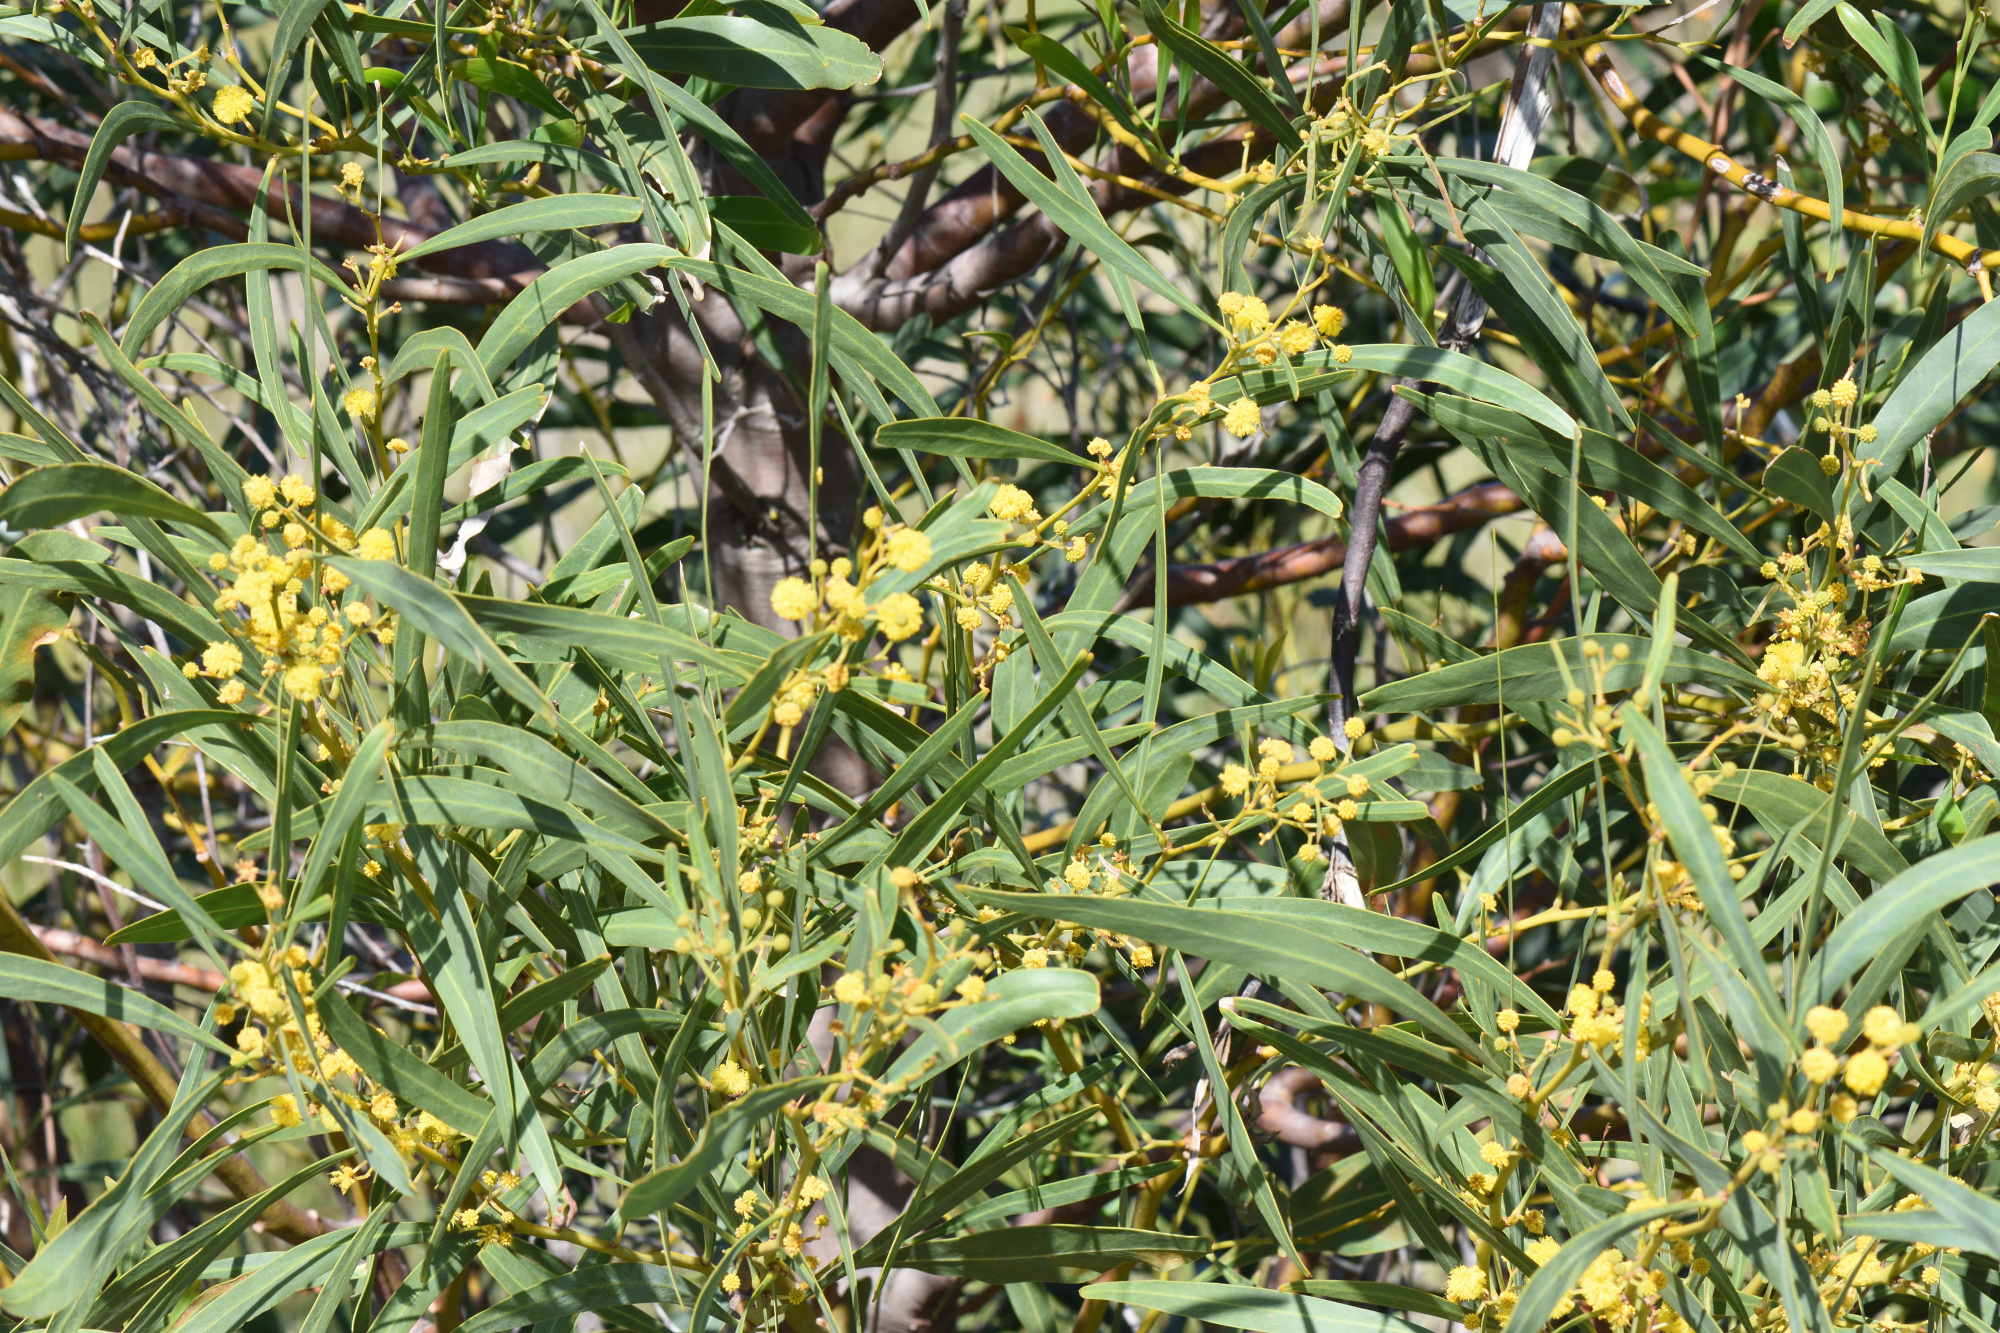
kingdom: Plantae
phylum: Tracheophyta
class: Magnoliopsida
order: Fabales
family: Fabaceae
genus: Acacia
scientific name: Acacia saligna
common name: Orange wattle
